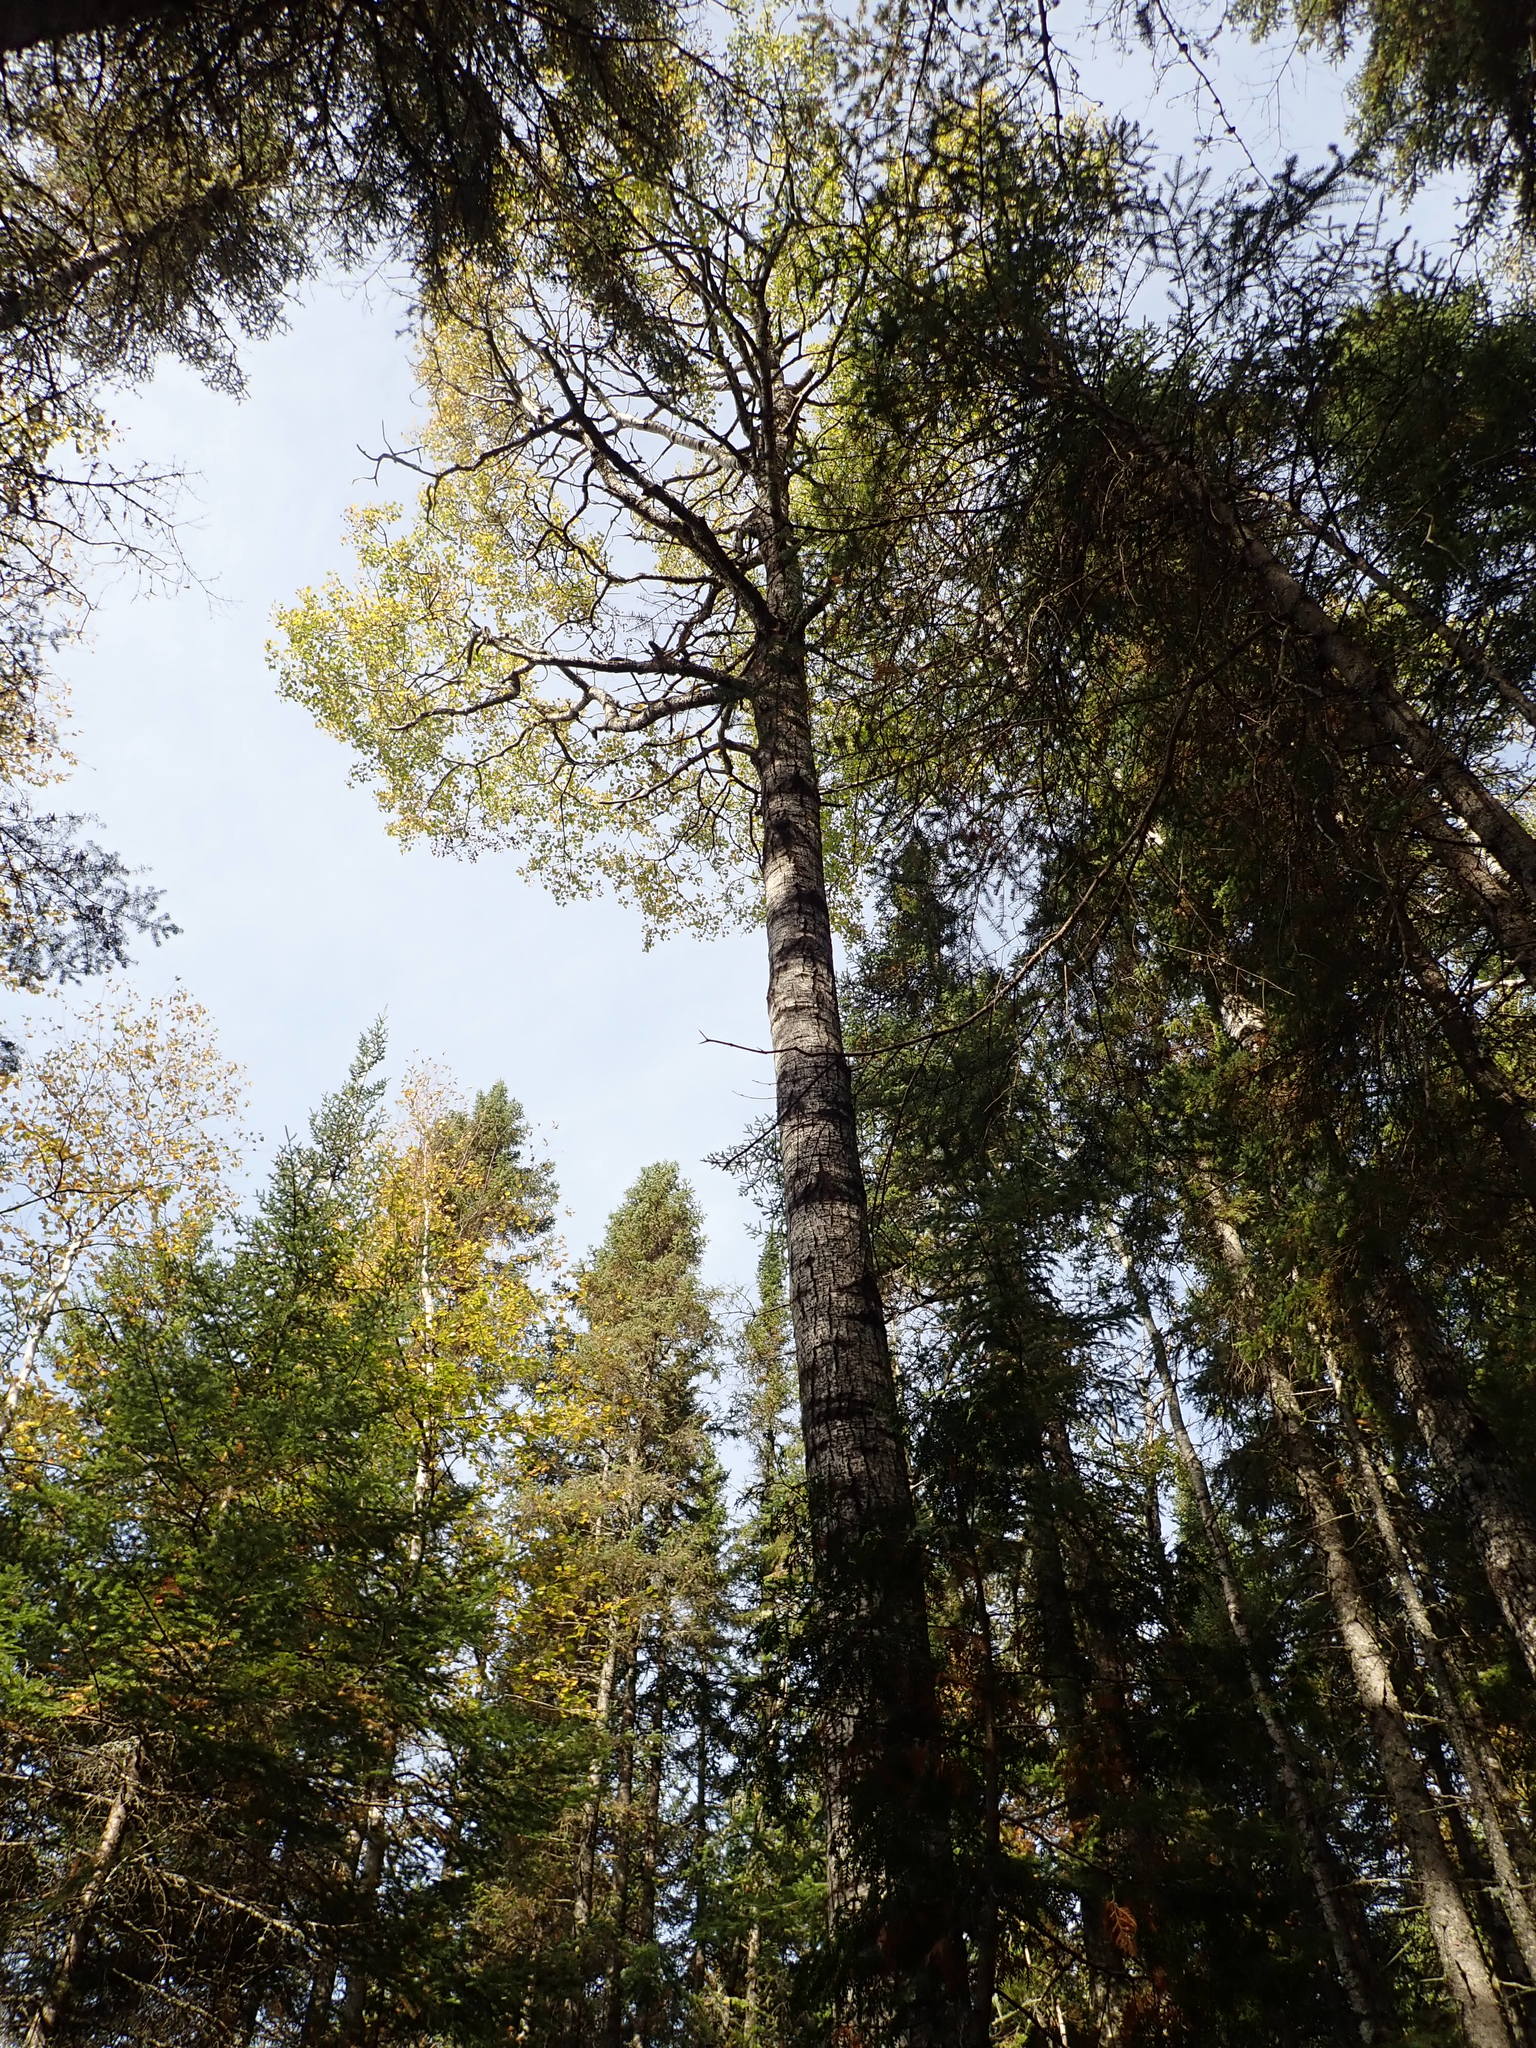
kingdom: Plantae
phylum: Tracheophyta
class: Magnoliopsida
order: Malpighiales
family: Salicaceae
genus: Populus
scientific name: Populus tremuloides
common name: Quaking aspen
